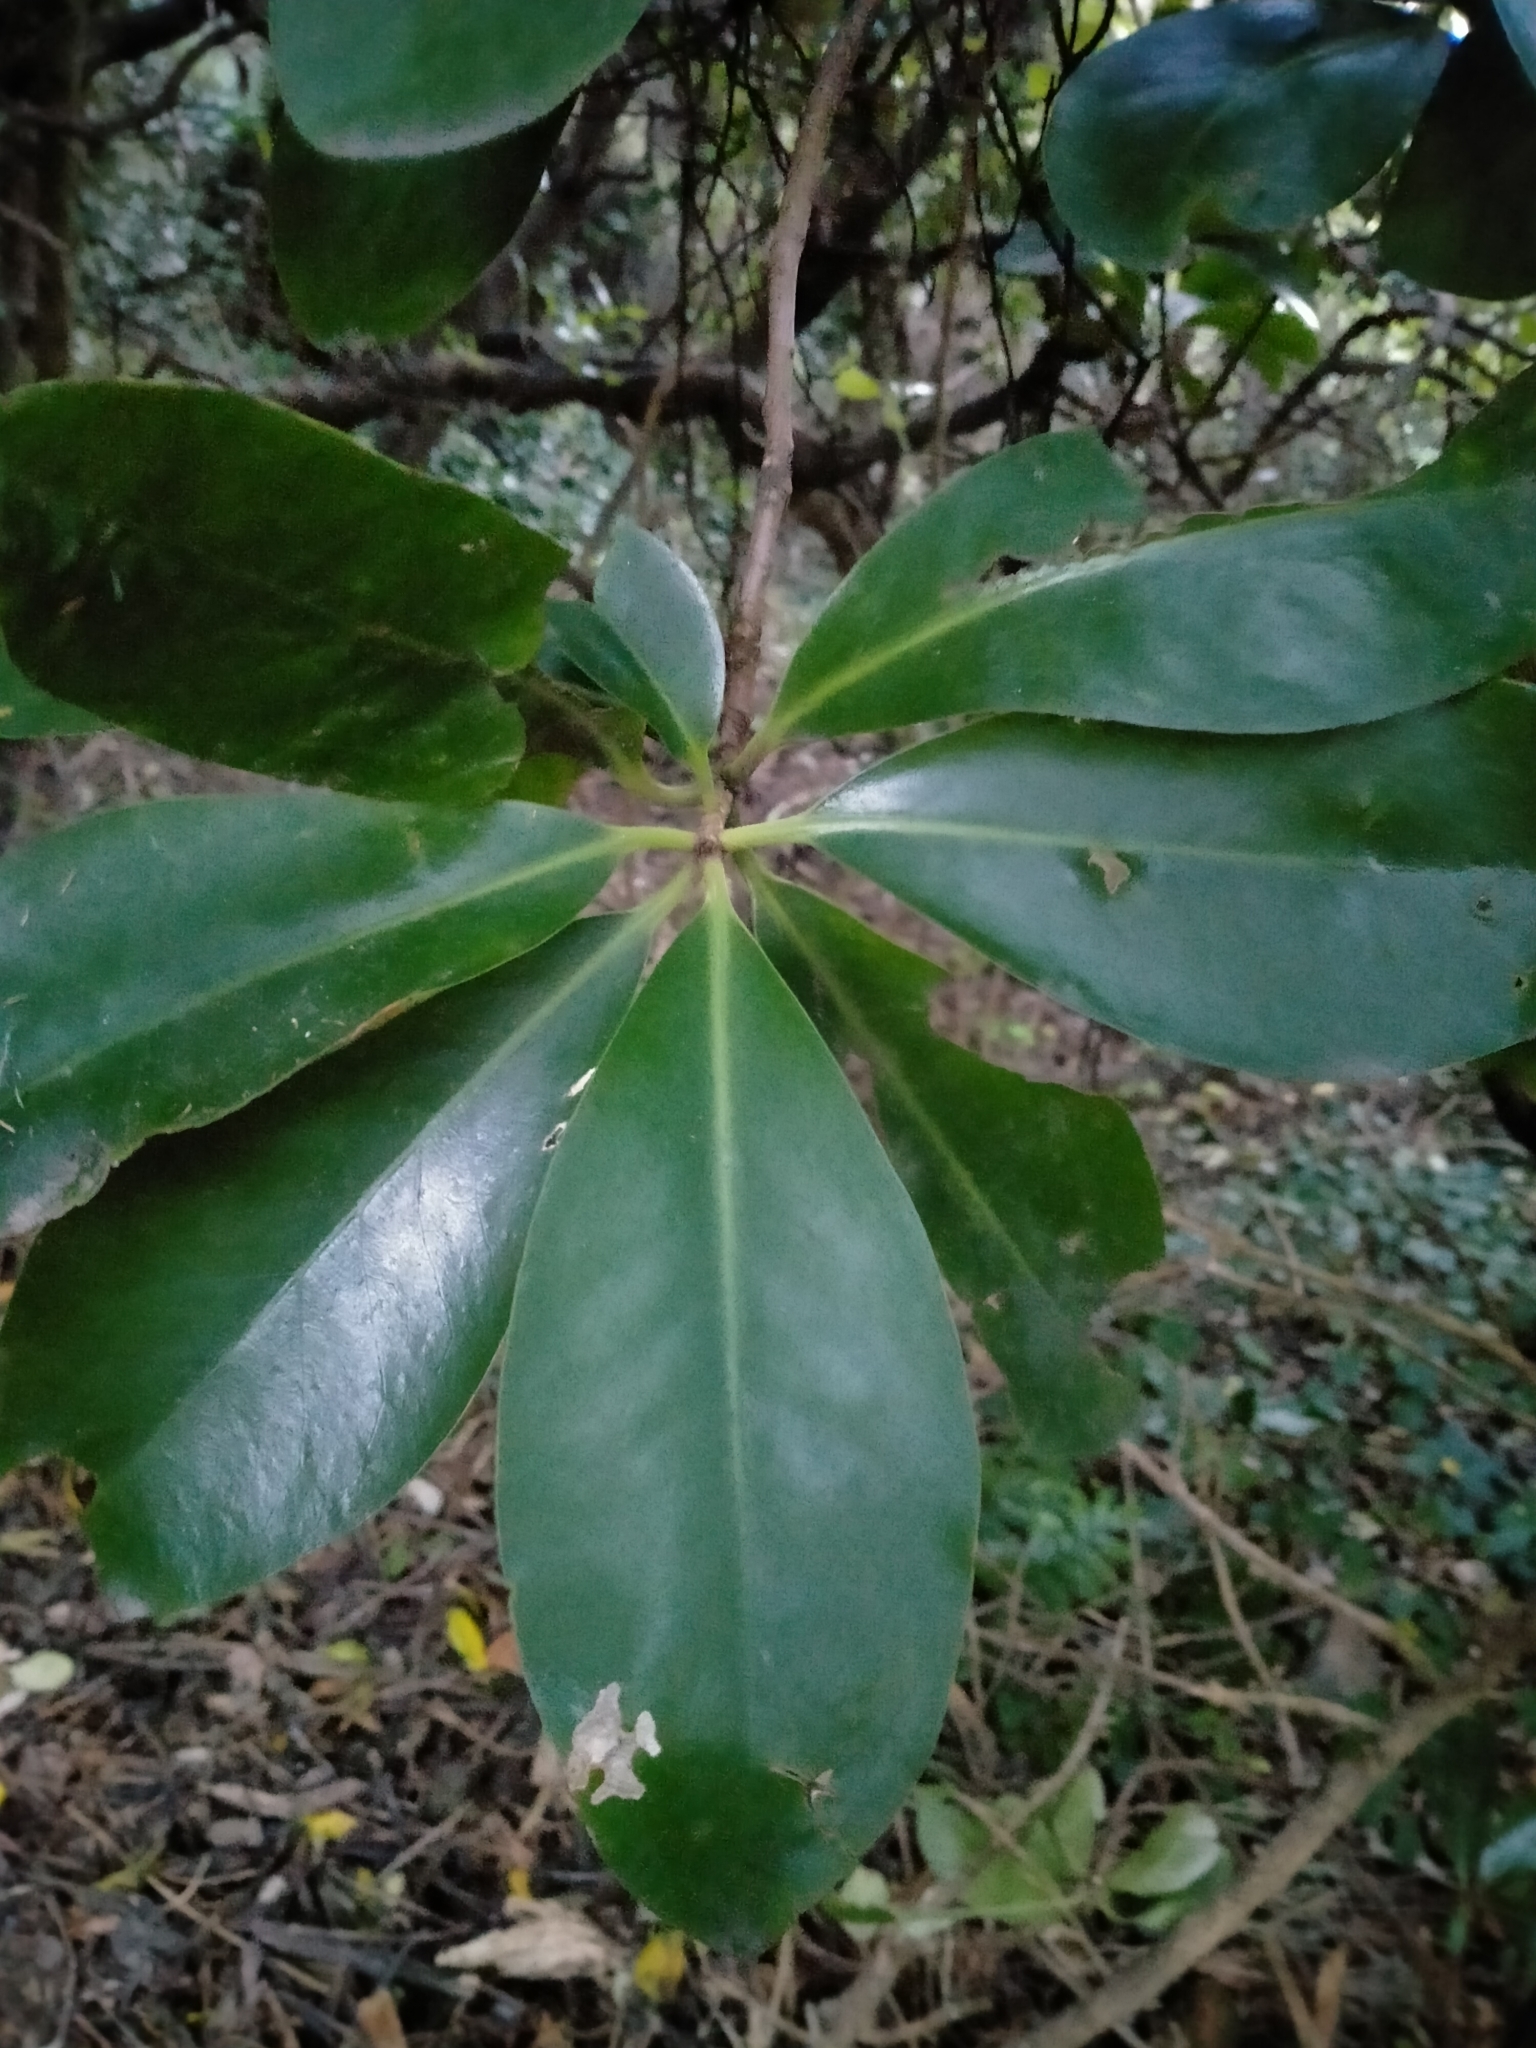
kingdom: Plantae
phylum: Tracheophyta
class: Magnoliopsida
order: Cucurbitales
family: Corynocarpaceae
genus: Corynocarpus
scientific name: Corynocarpus laevigatus
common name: New zealand laurel
